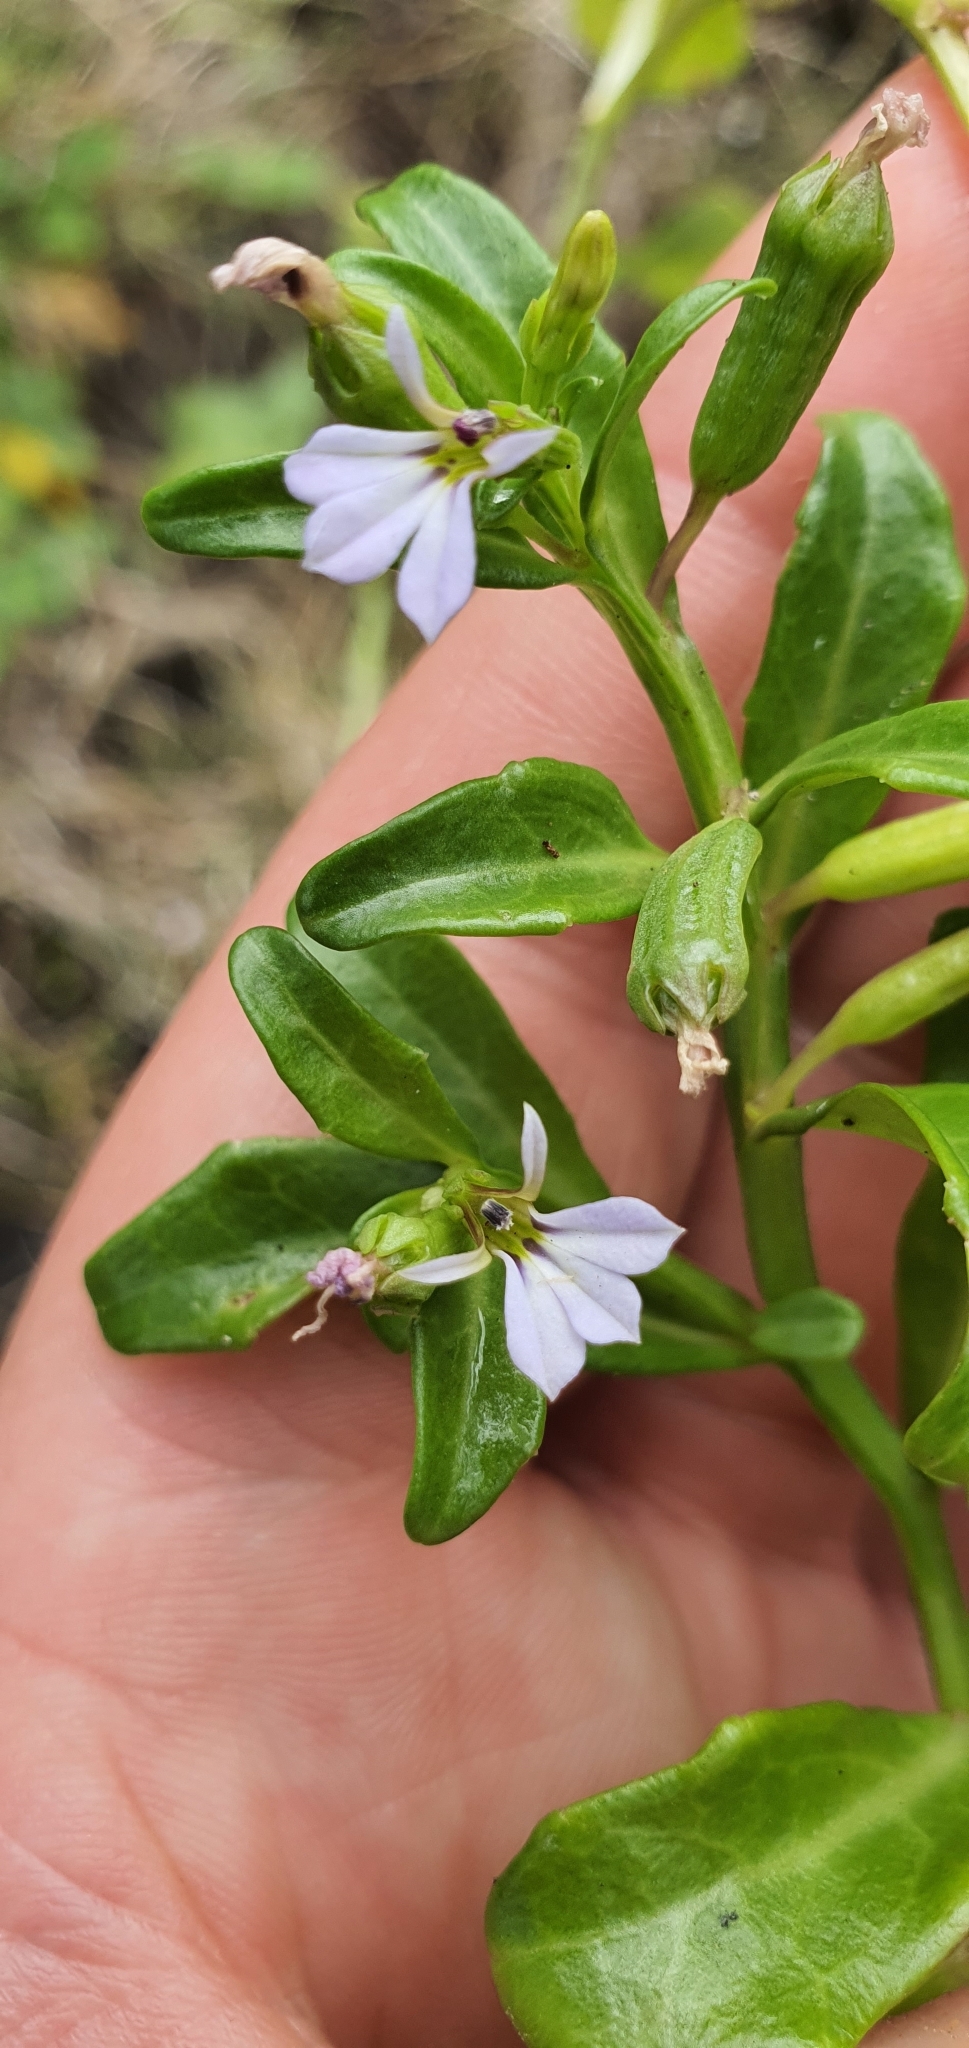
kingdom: Plantae
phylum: Tracheophyta
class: Magnoliopsida
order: Asterales
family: Campanulaceae
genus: Lobelia
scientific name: Lobelia anceps
